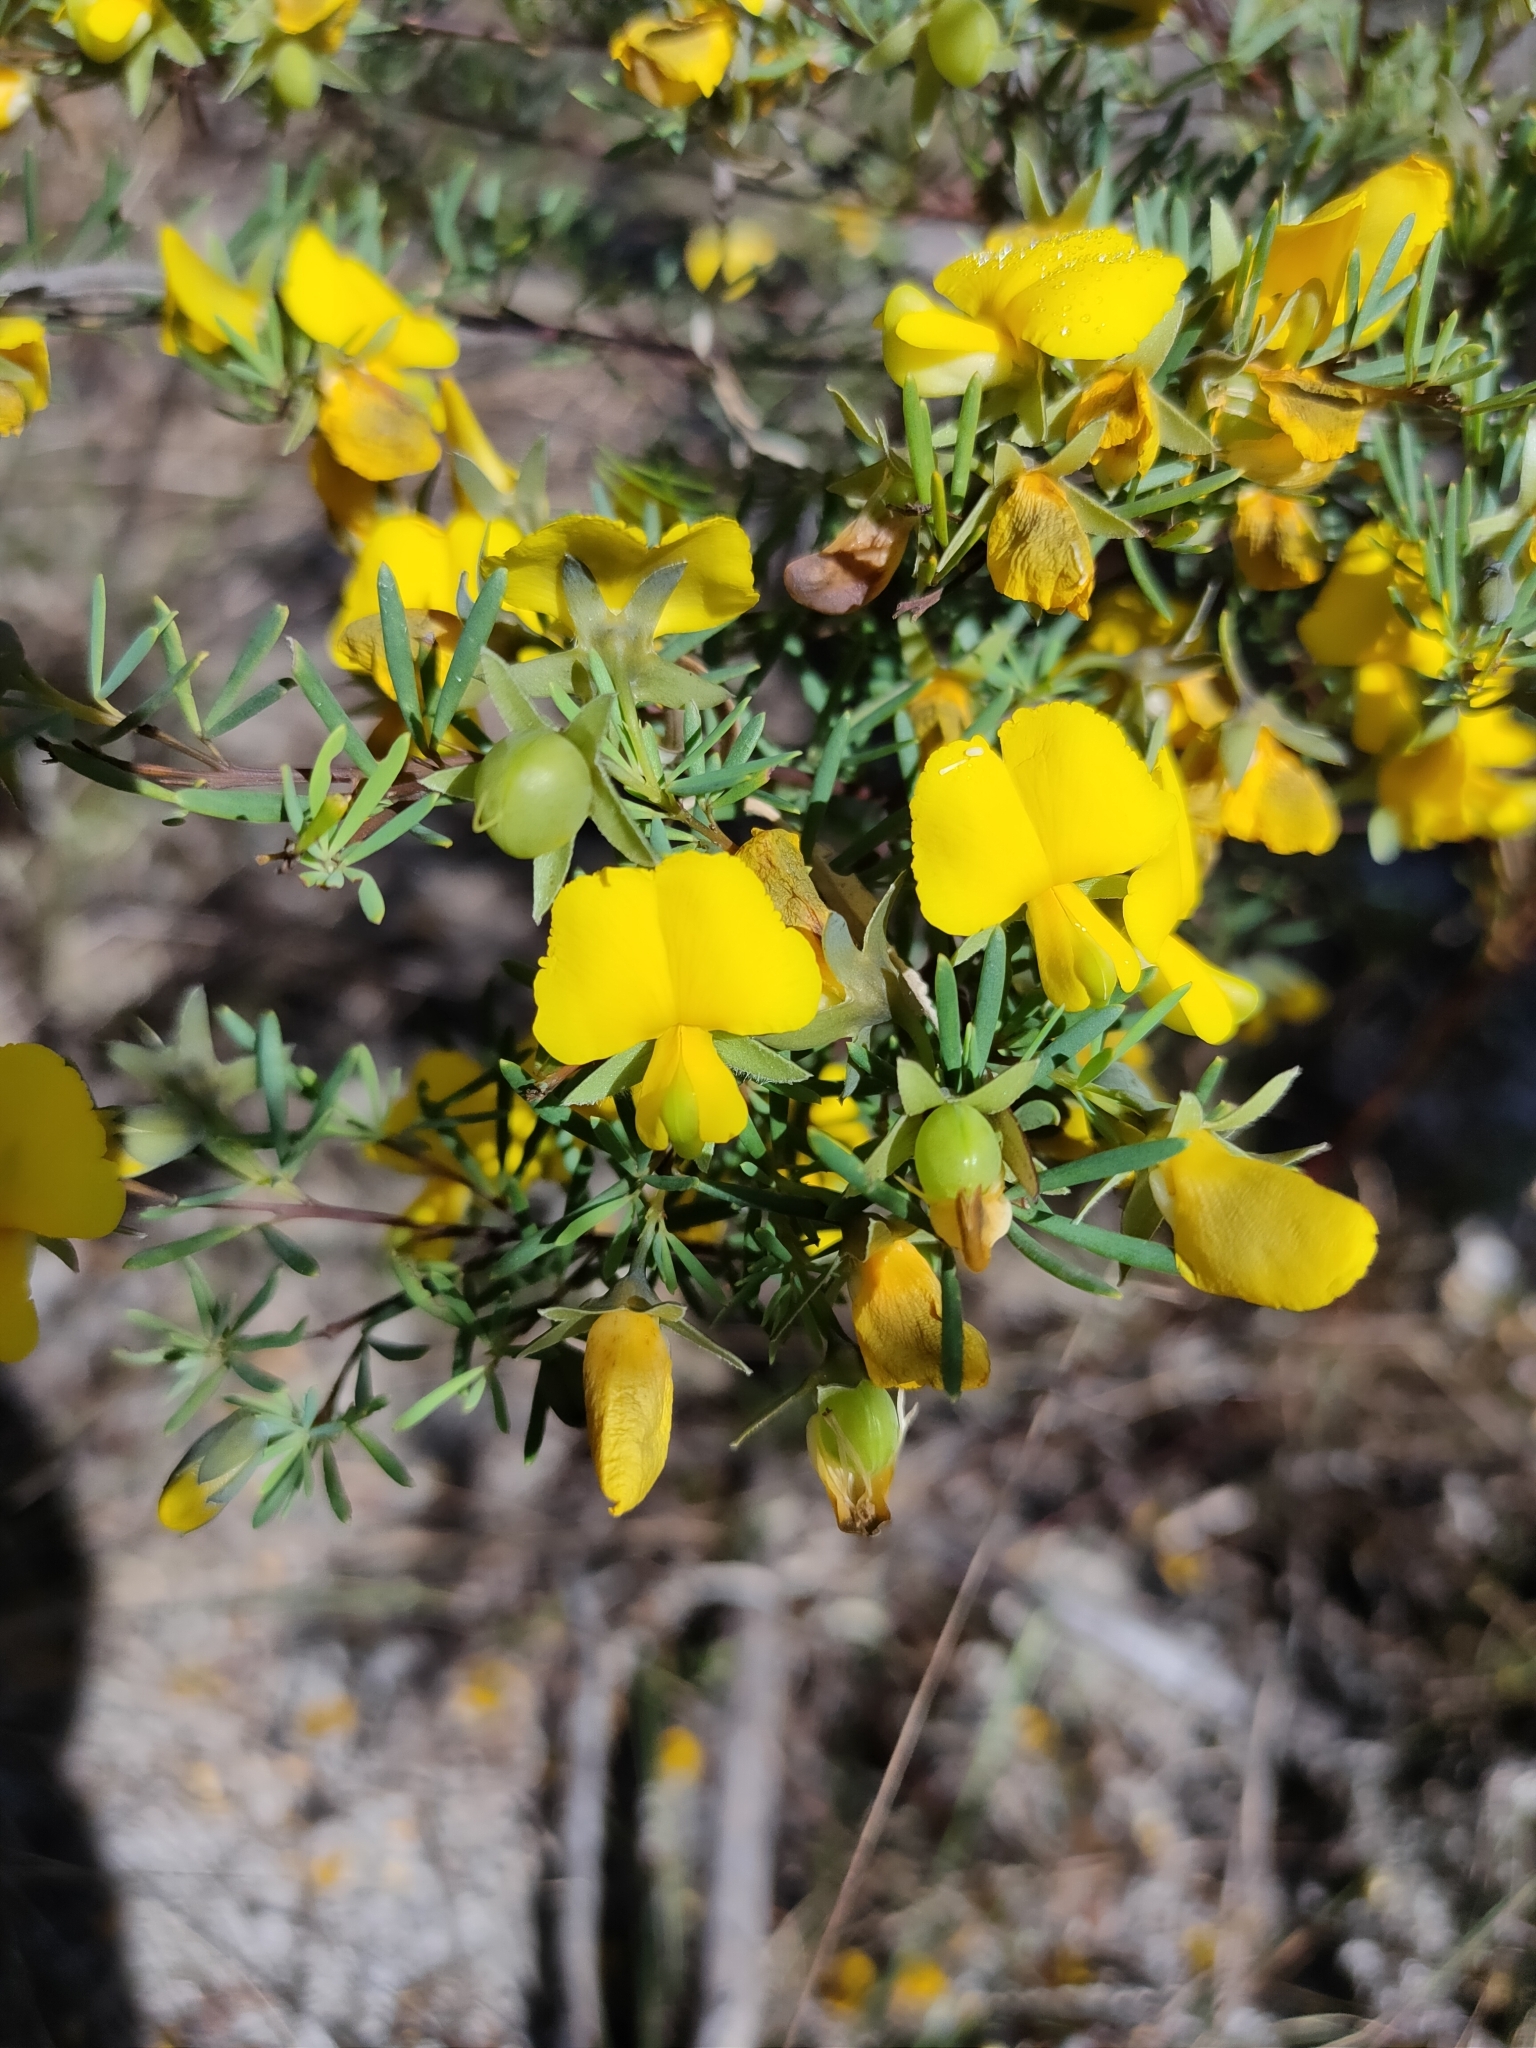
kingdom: Plantae
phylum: Tracheophyta
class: Magnoliopsida
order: Fabales
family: Fabaceae
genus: Gompholobium
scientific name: Gompholobium virgatum
